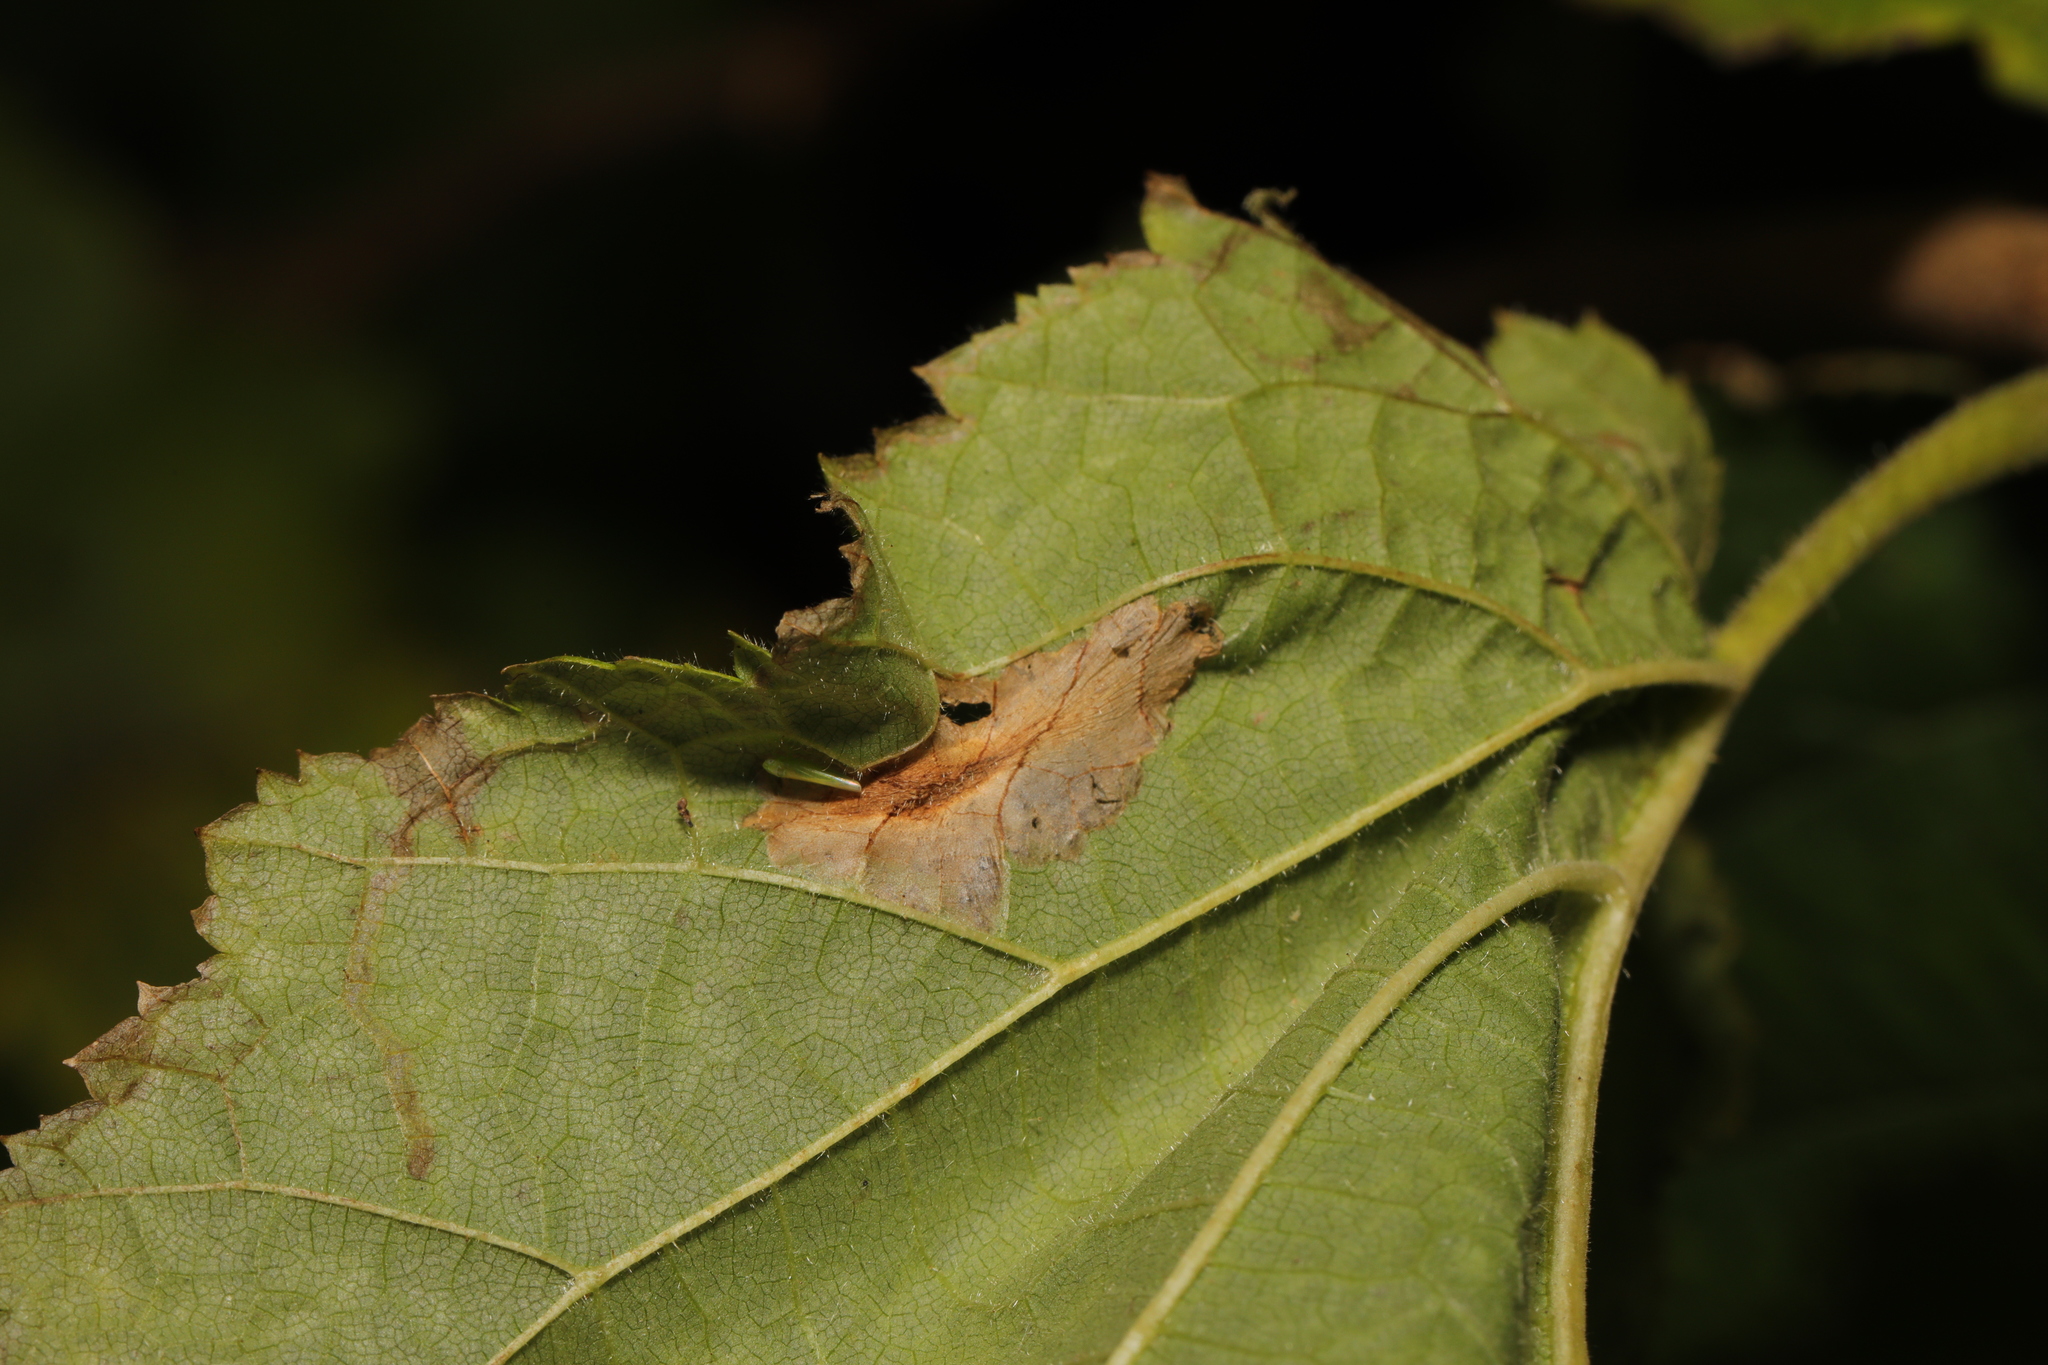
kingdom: Animalia
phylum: Arthropoda
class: Insecta
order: Lepidoptera
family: Gracillariidae
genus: Phyllonorycter
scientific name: Phyllonorycter nicellii
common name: Red hazel midget
